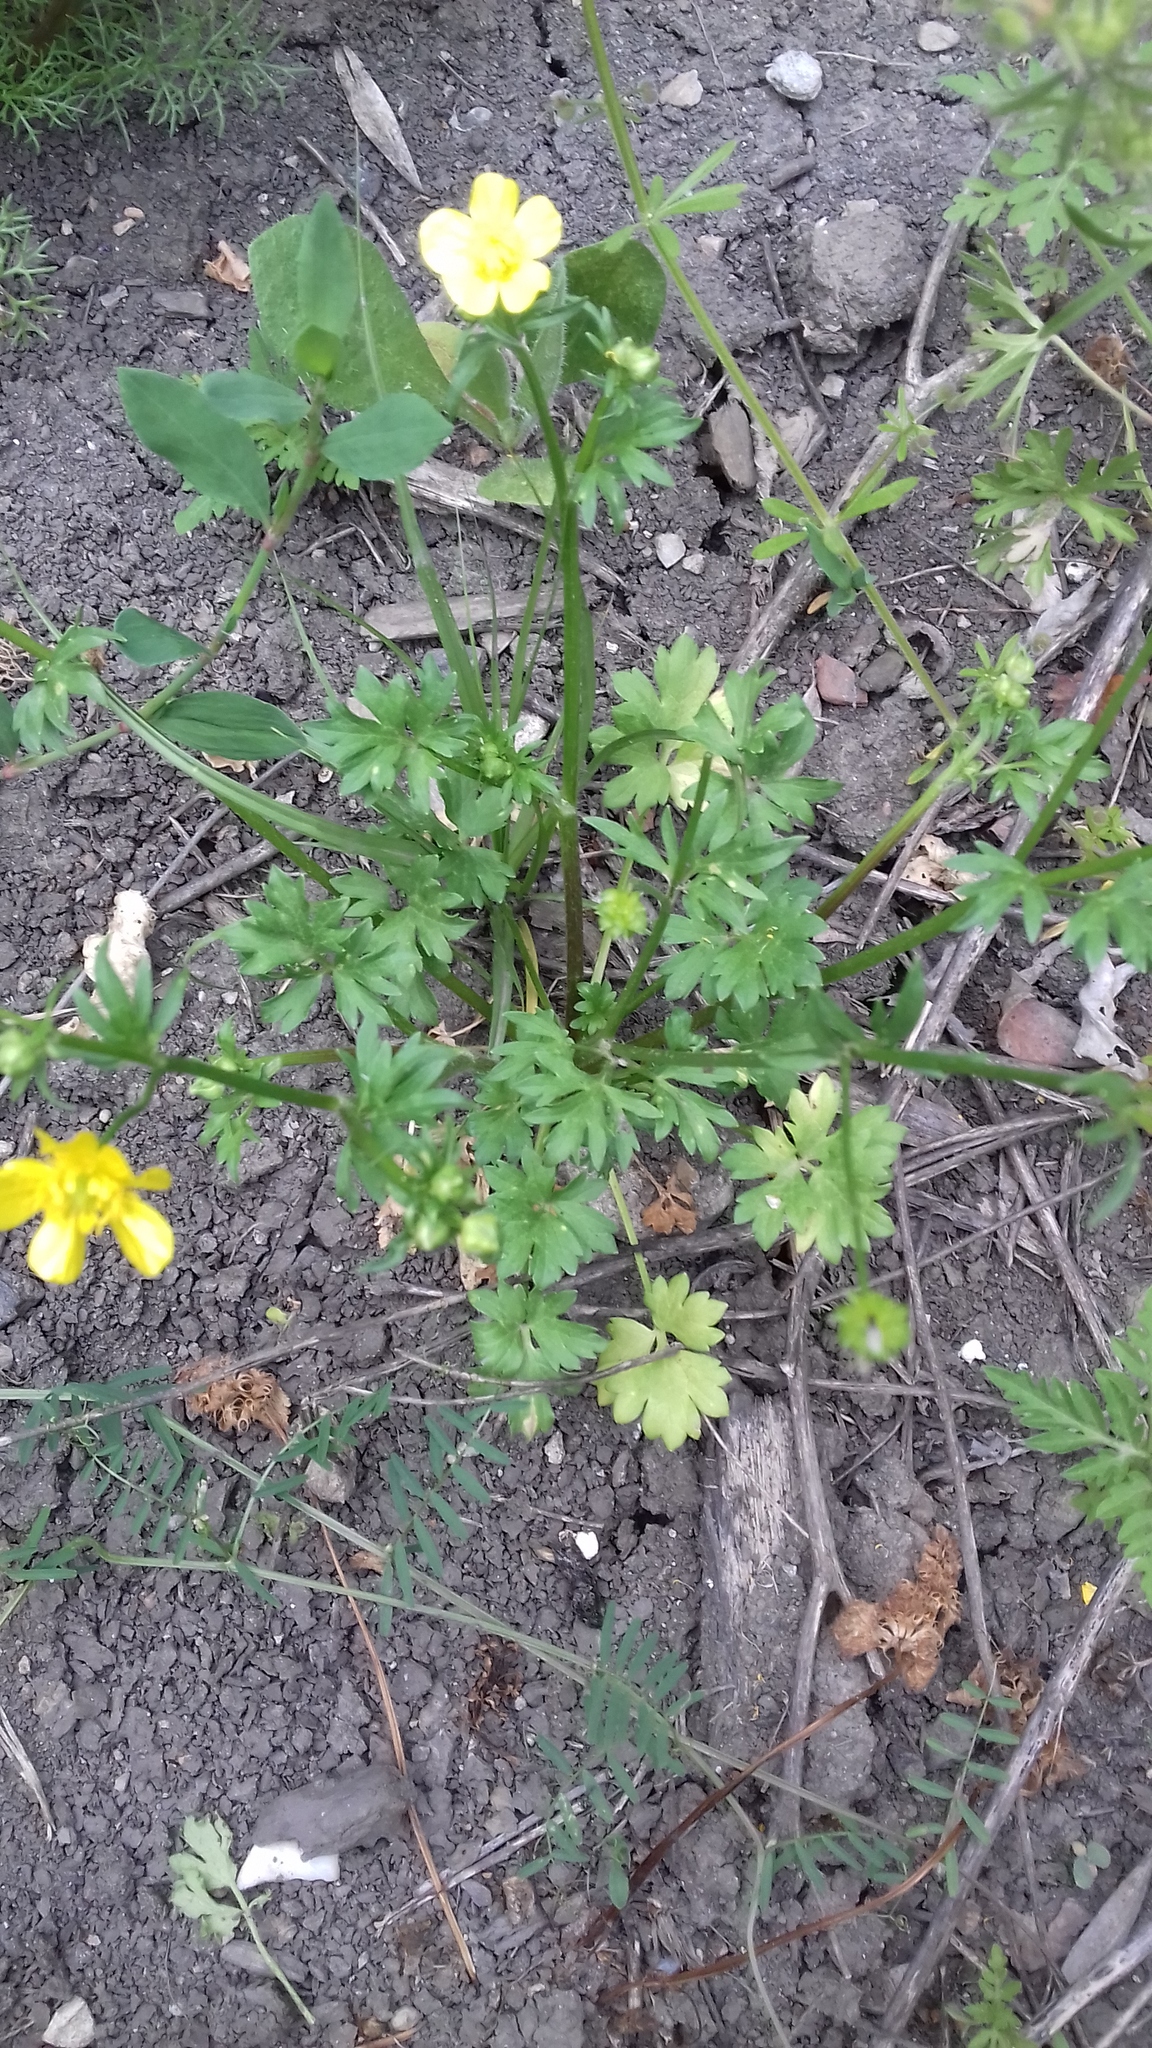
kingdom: Plantae
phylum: Tracheophyta
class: Magnoliopsida
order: Ranunculales
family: Ranunculaceae
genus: Ranunculus
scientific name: Ranunculus acris
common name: Meadow buttercup
